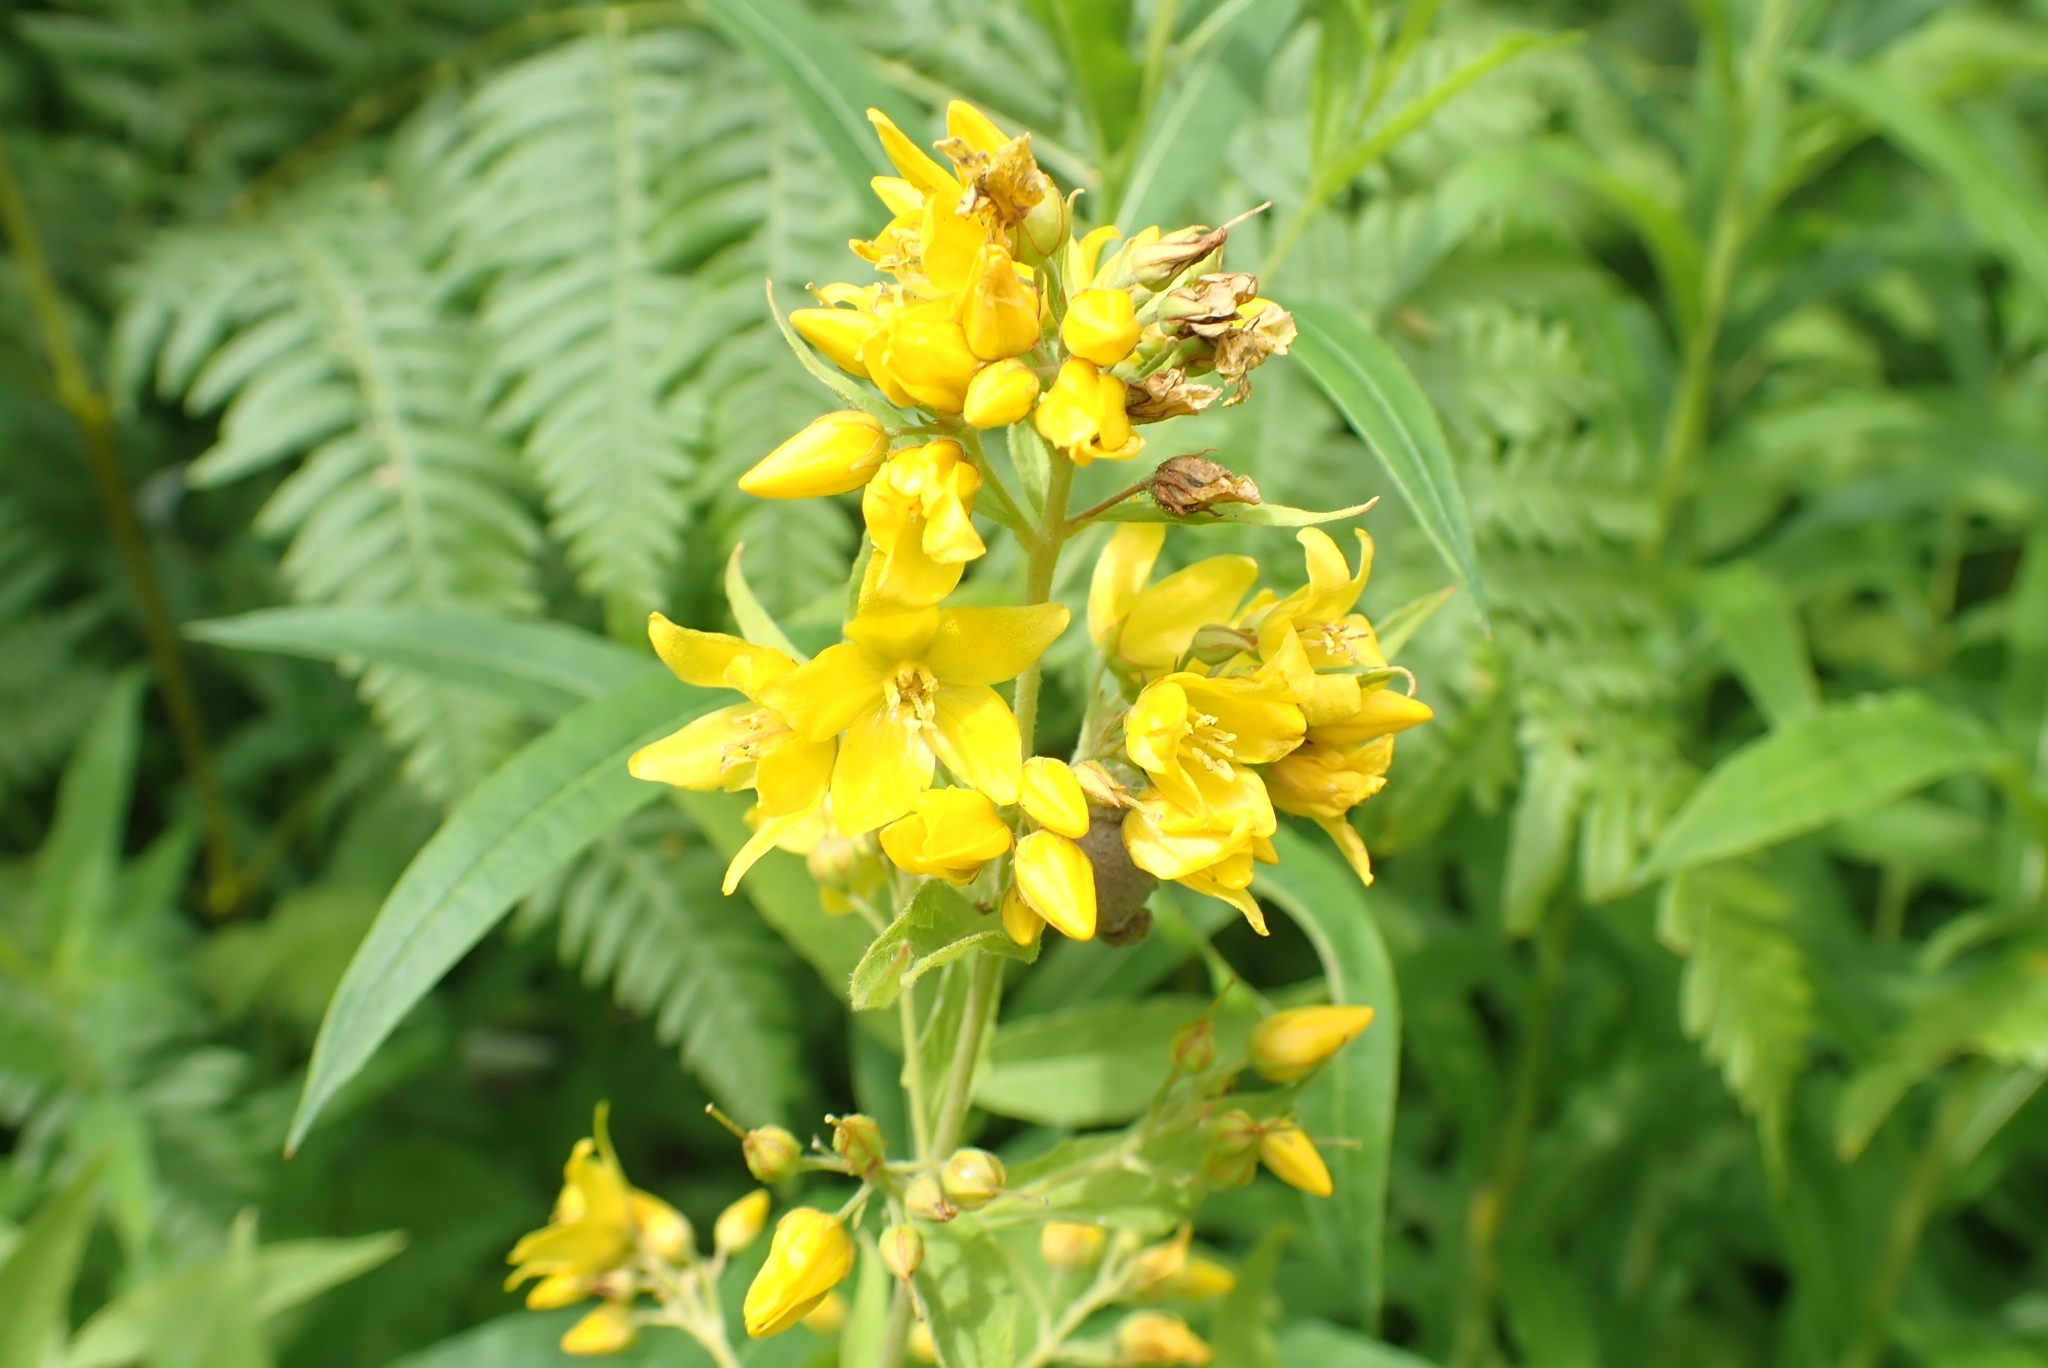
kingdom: Plantae
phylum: Tracheophyta
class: Magnoliopsida
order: Ericales
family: Primulaceae
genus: Lysimachia
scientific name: Lysimachia vulgaris
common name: Yellow loosestrife
